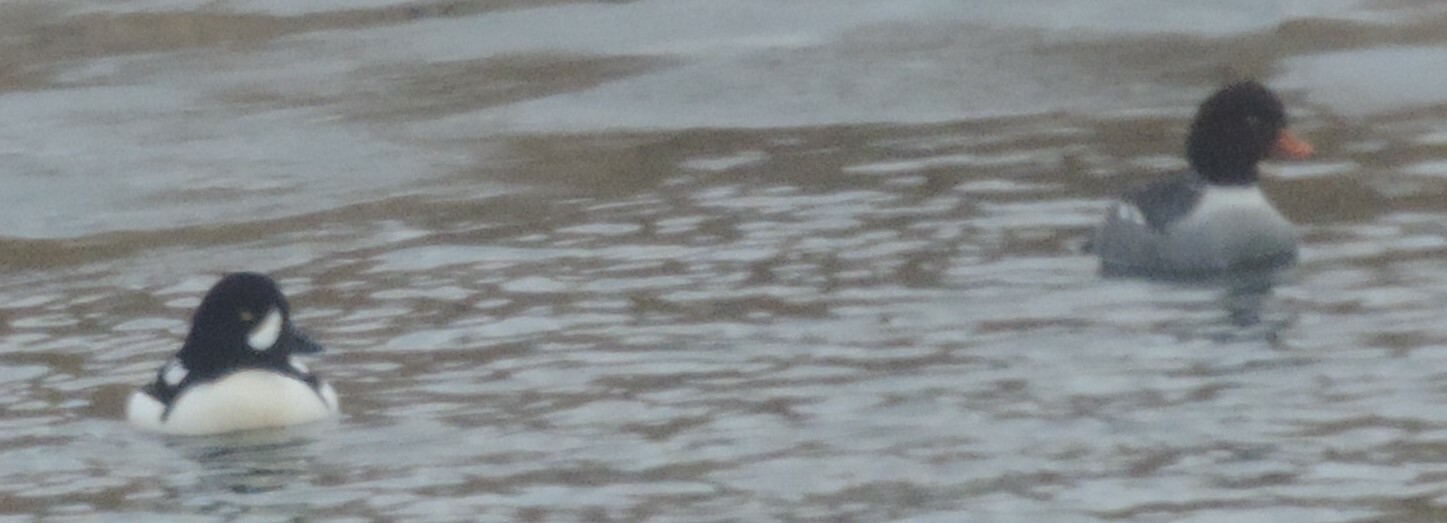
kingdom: Animalia
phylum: Chordata
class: Aves
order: Anseriformes
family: Anatidae
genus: Bucephala
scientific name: Bucephala islandica
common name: Barrow's goldeneye
